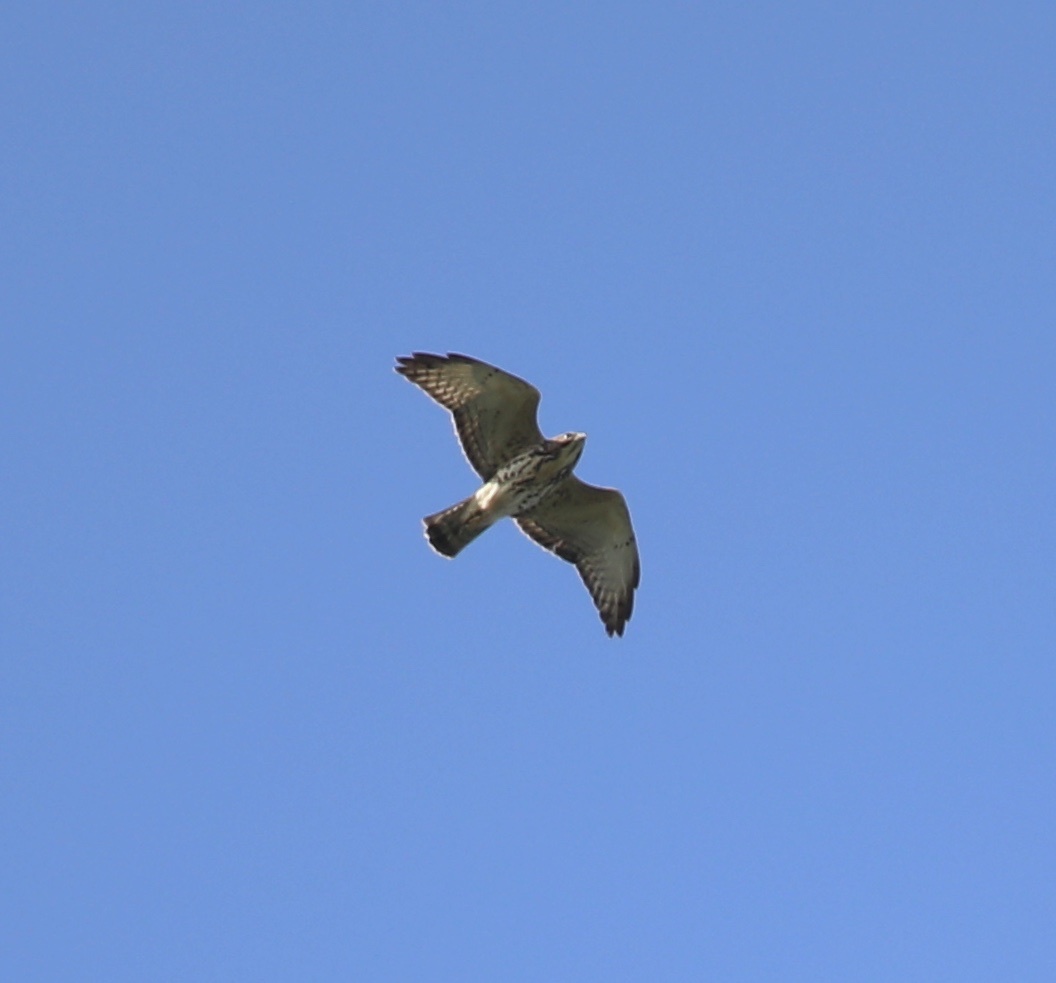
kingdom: Animalia
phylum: Chordata
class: Aves
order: Accipitriformes
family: Accipitridae
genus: Buteo
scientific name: Buteo platypterus
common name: Broad-winged hawk
